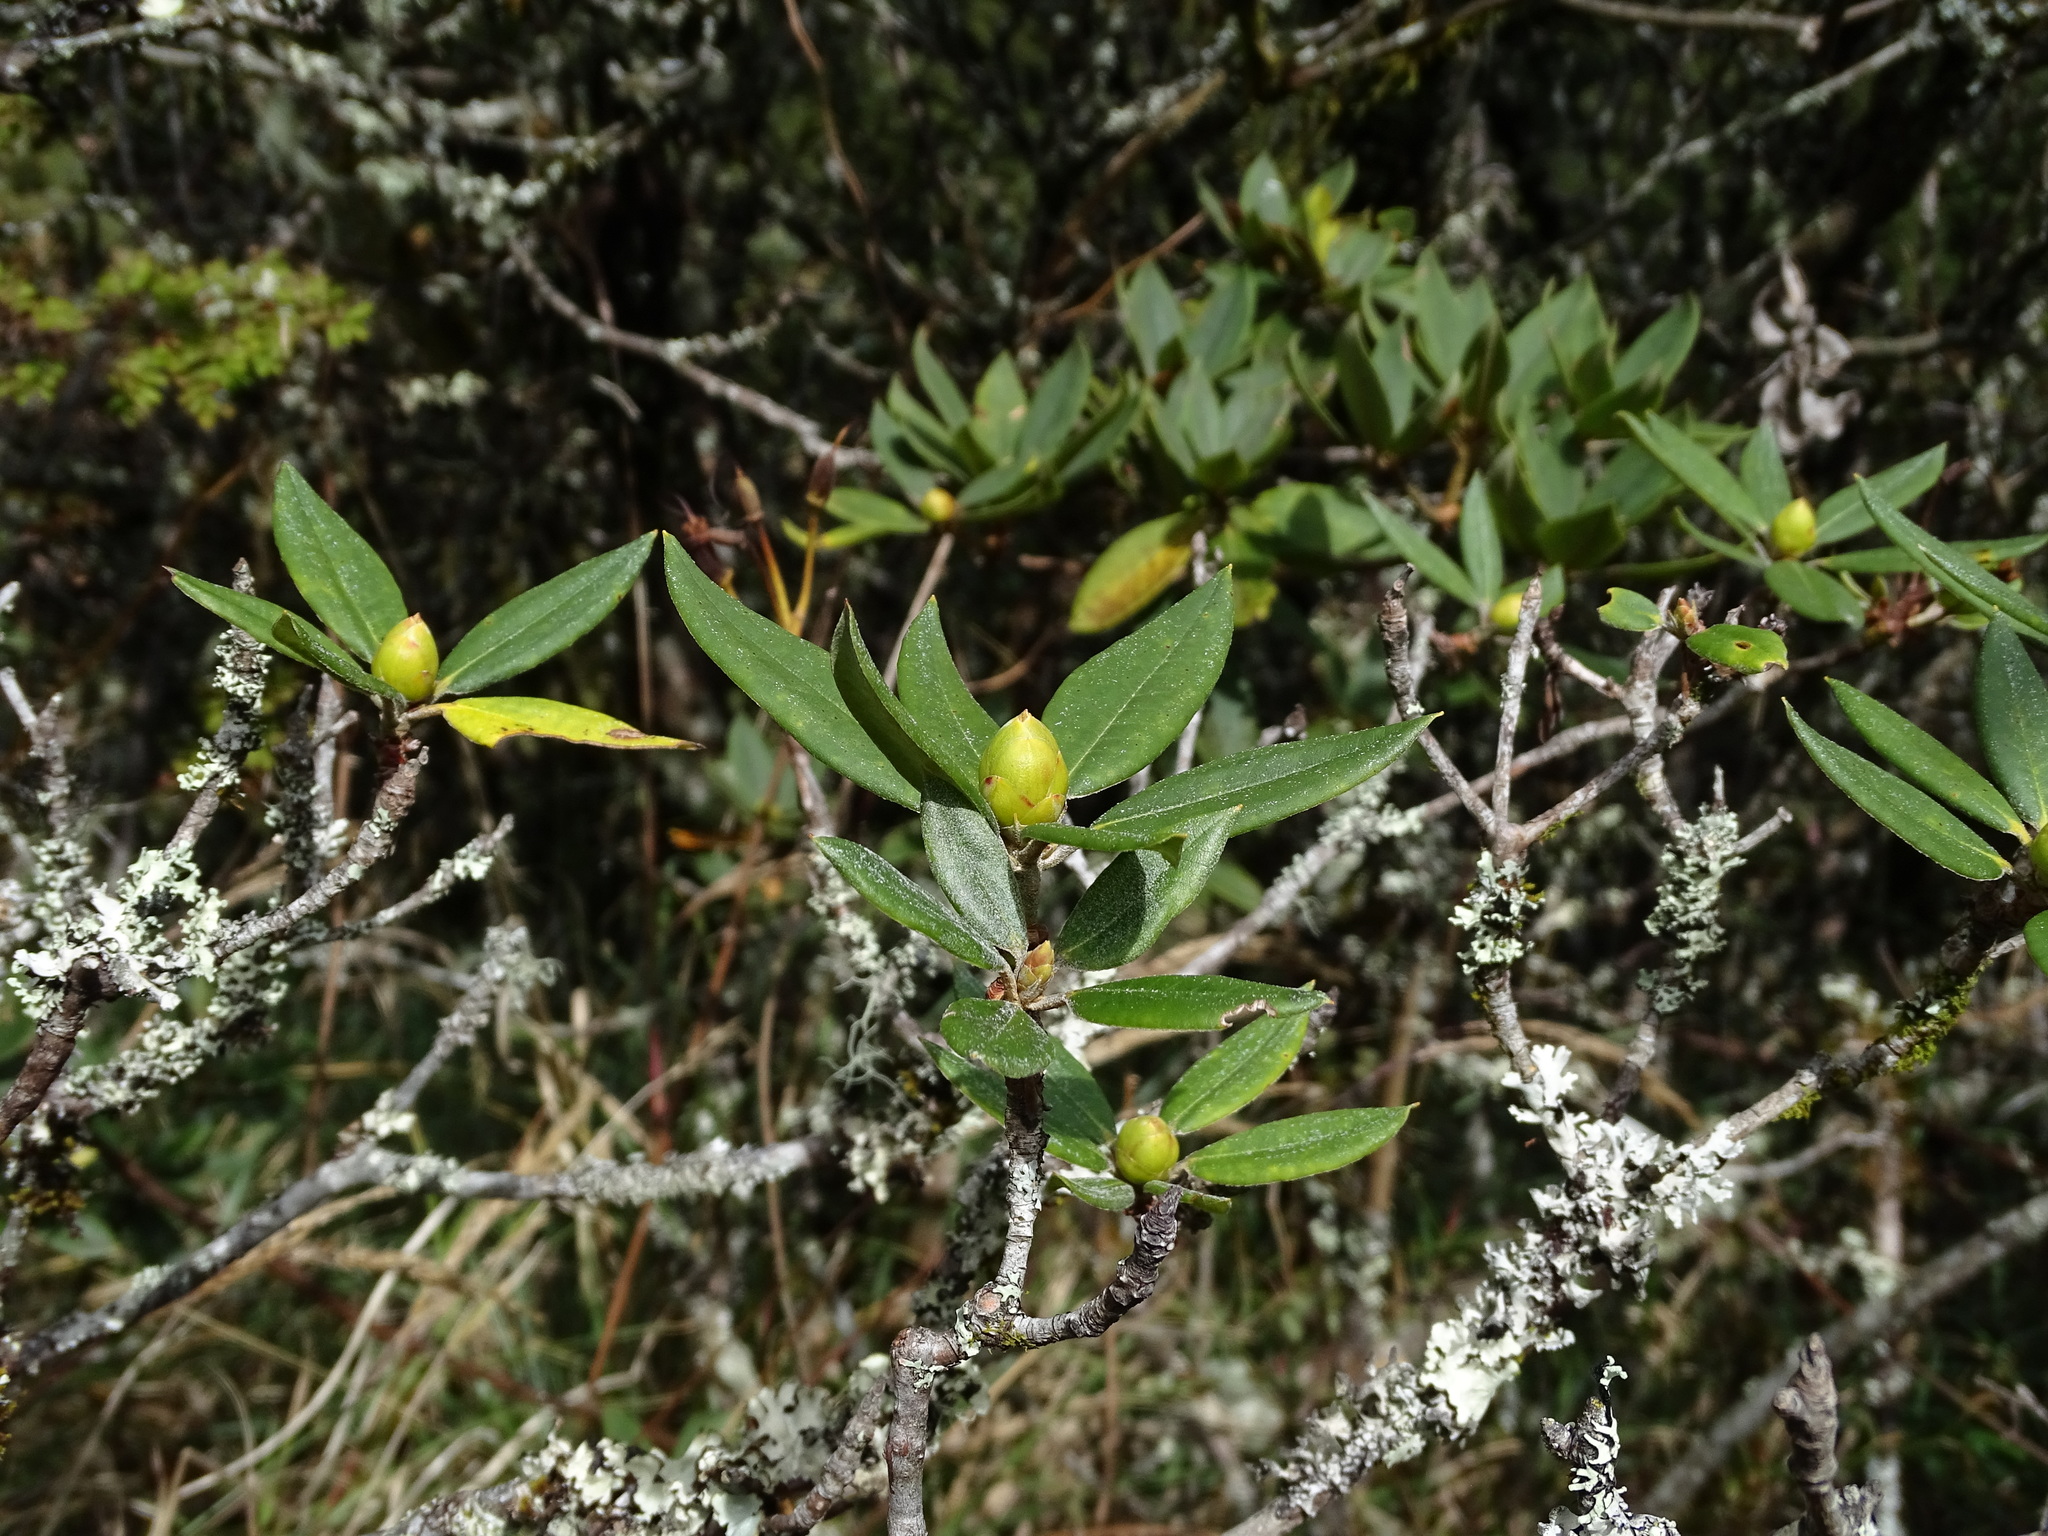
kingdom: Plantae
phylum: Tracheophyta
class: Magnoliopsida
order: Ericales
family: Ericaceae
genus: Rhododendron
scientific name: Rhododendron pseudochrysanthum
